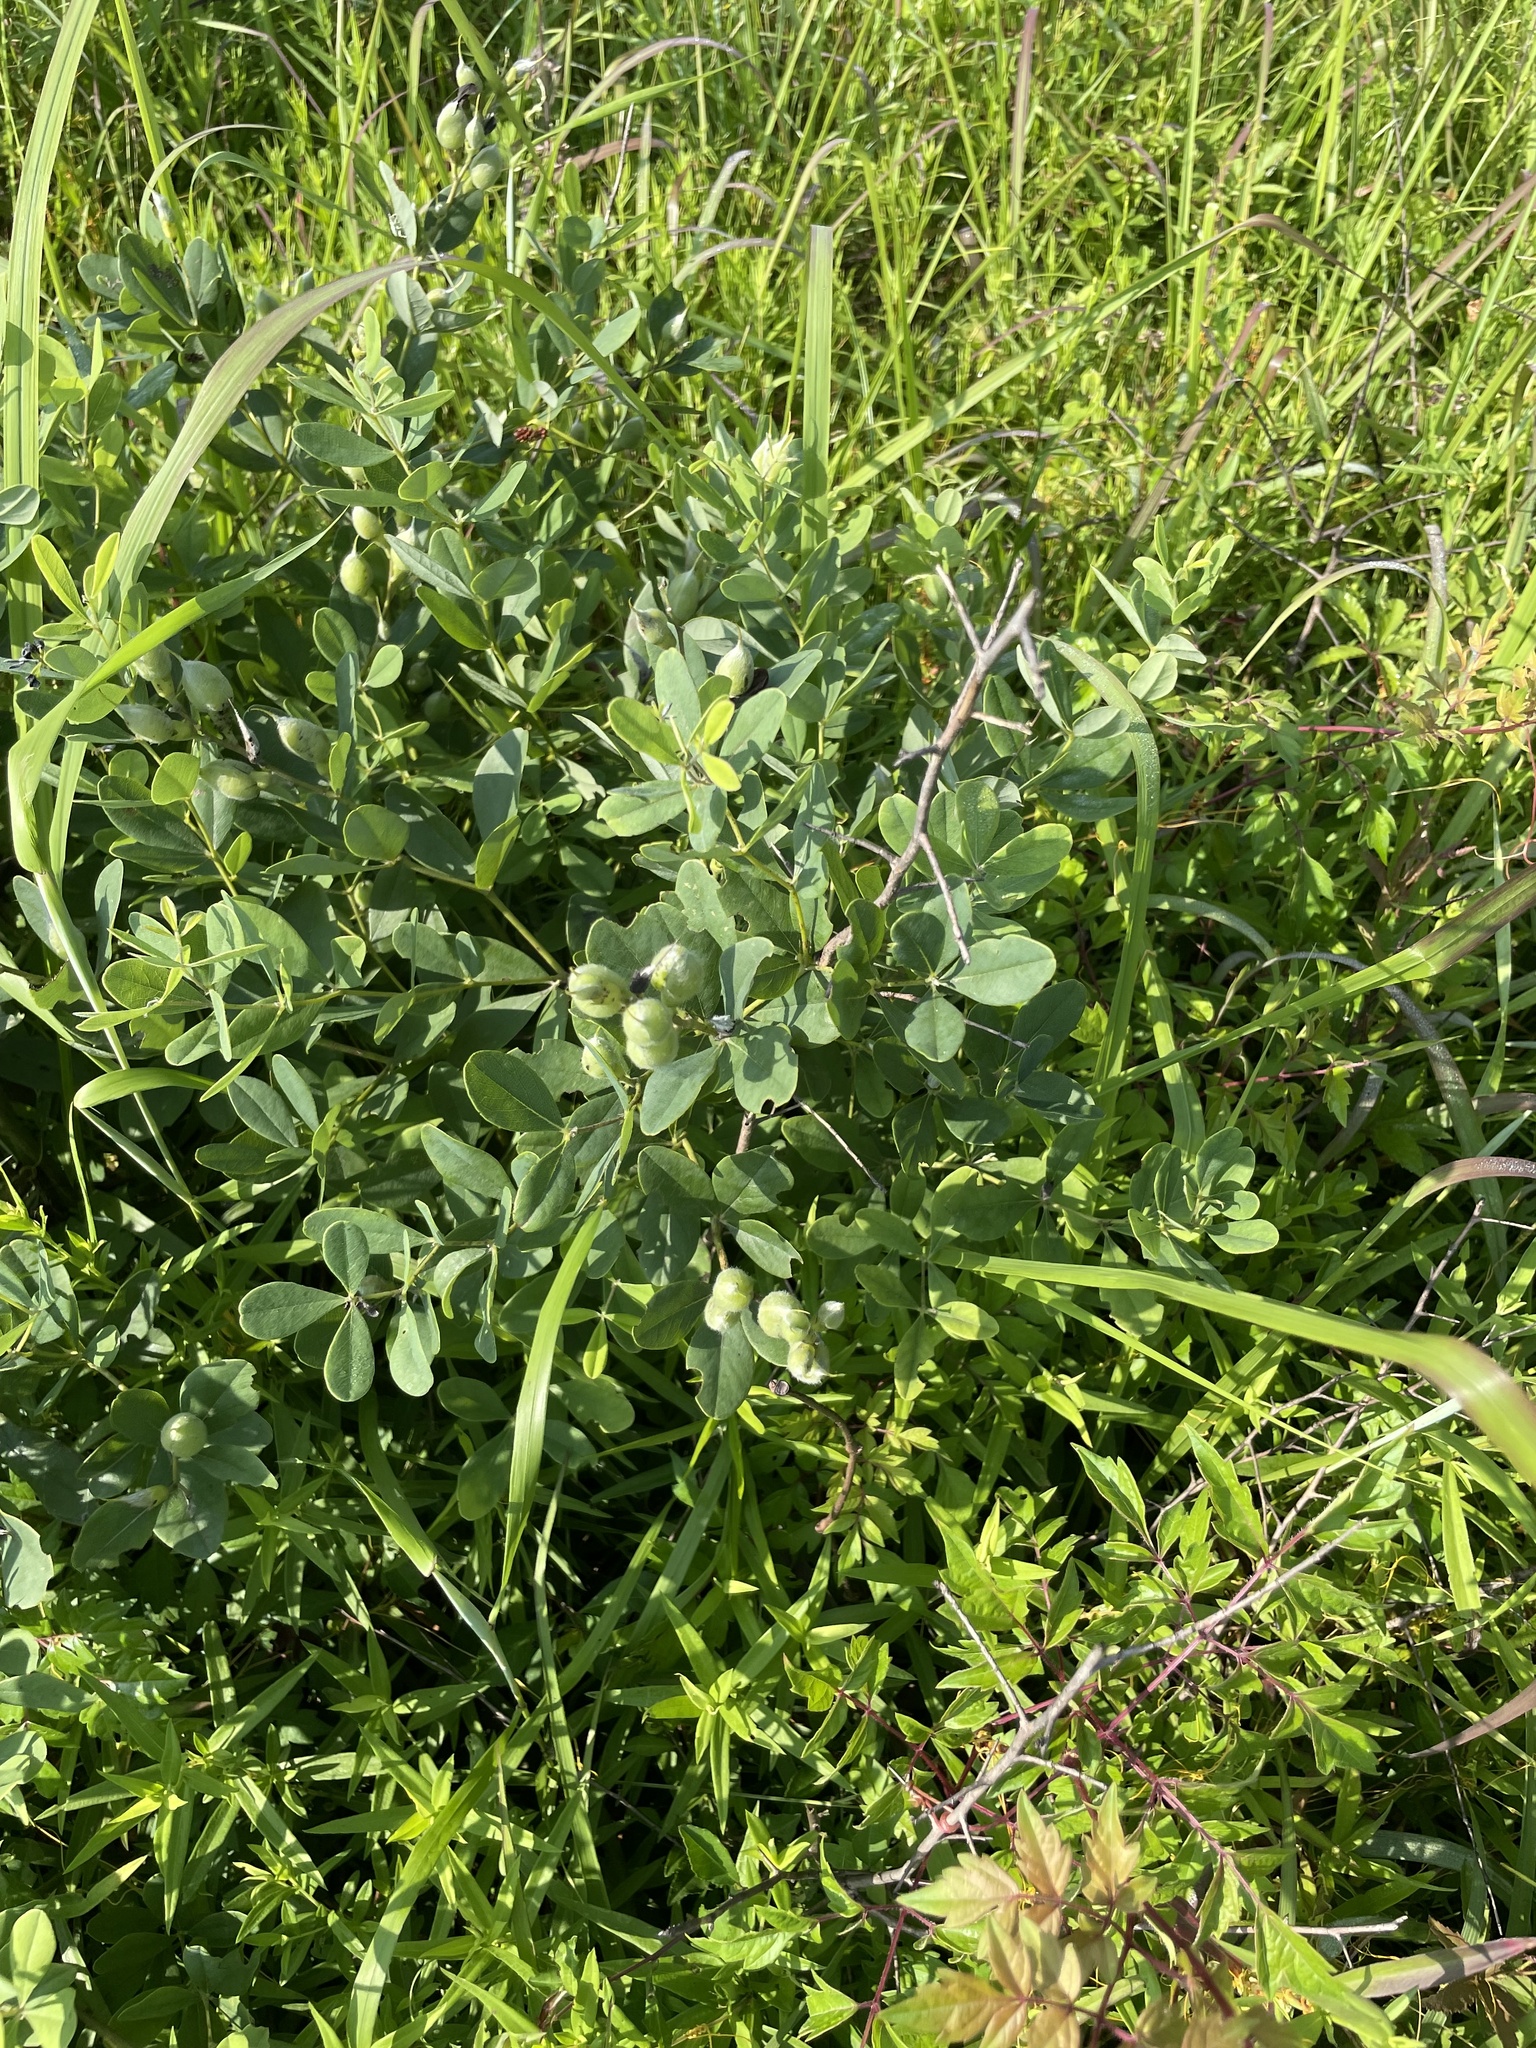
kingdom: Plantae
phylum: Tracheophyta
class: Magnoliopsida
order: Fabales
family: Fabaceae
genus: Baptisia
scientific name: Baptisia nuttalliana
